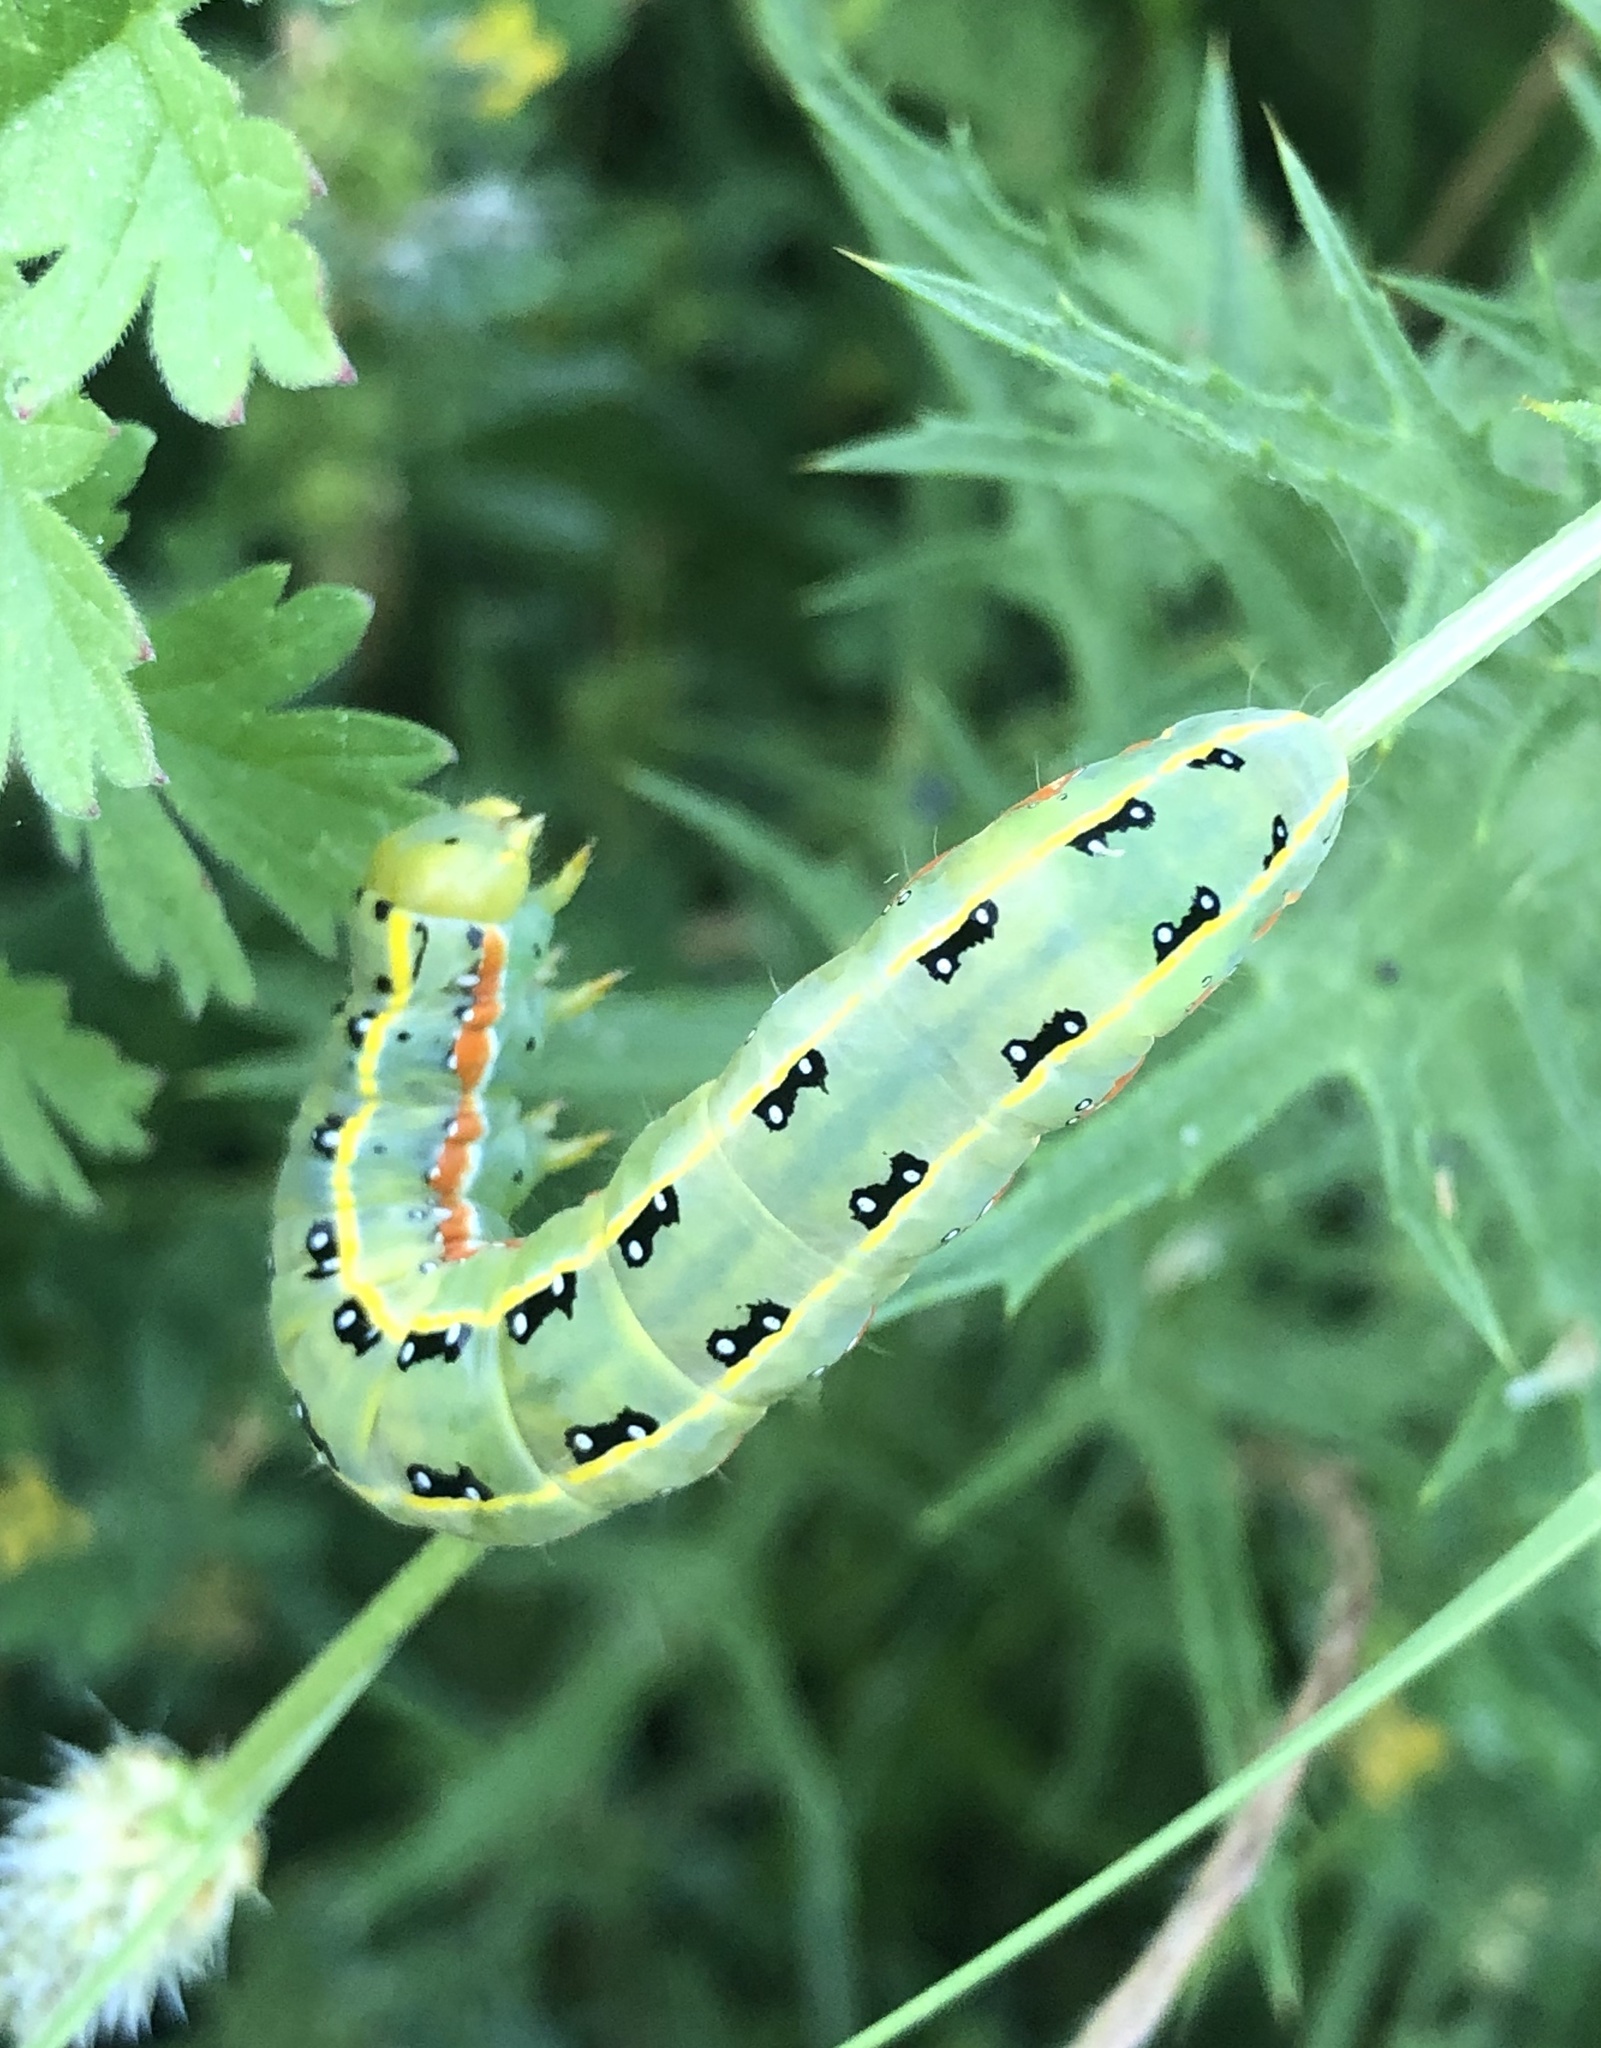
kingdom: Animalia
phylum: Arthropoda
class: Insecta
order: Lepidoptera
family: Noctuidae
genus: Xylena
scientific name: Xylena exsoleta
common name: Sword-grass
